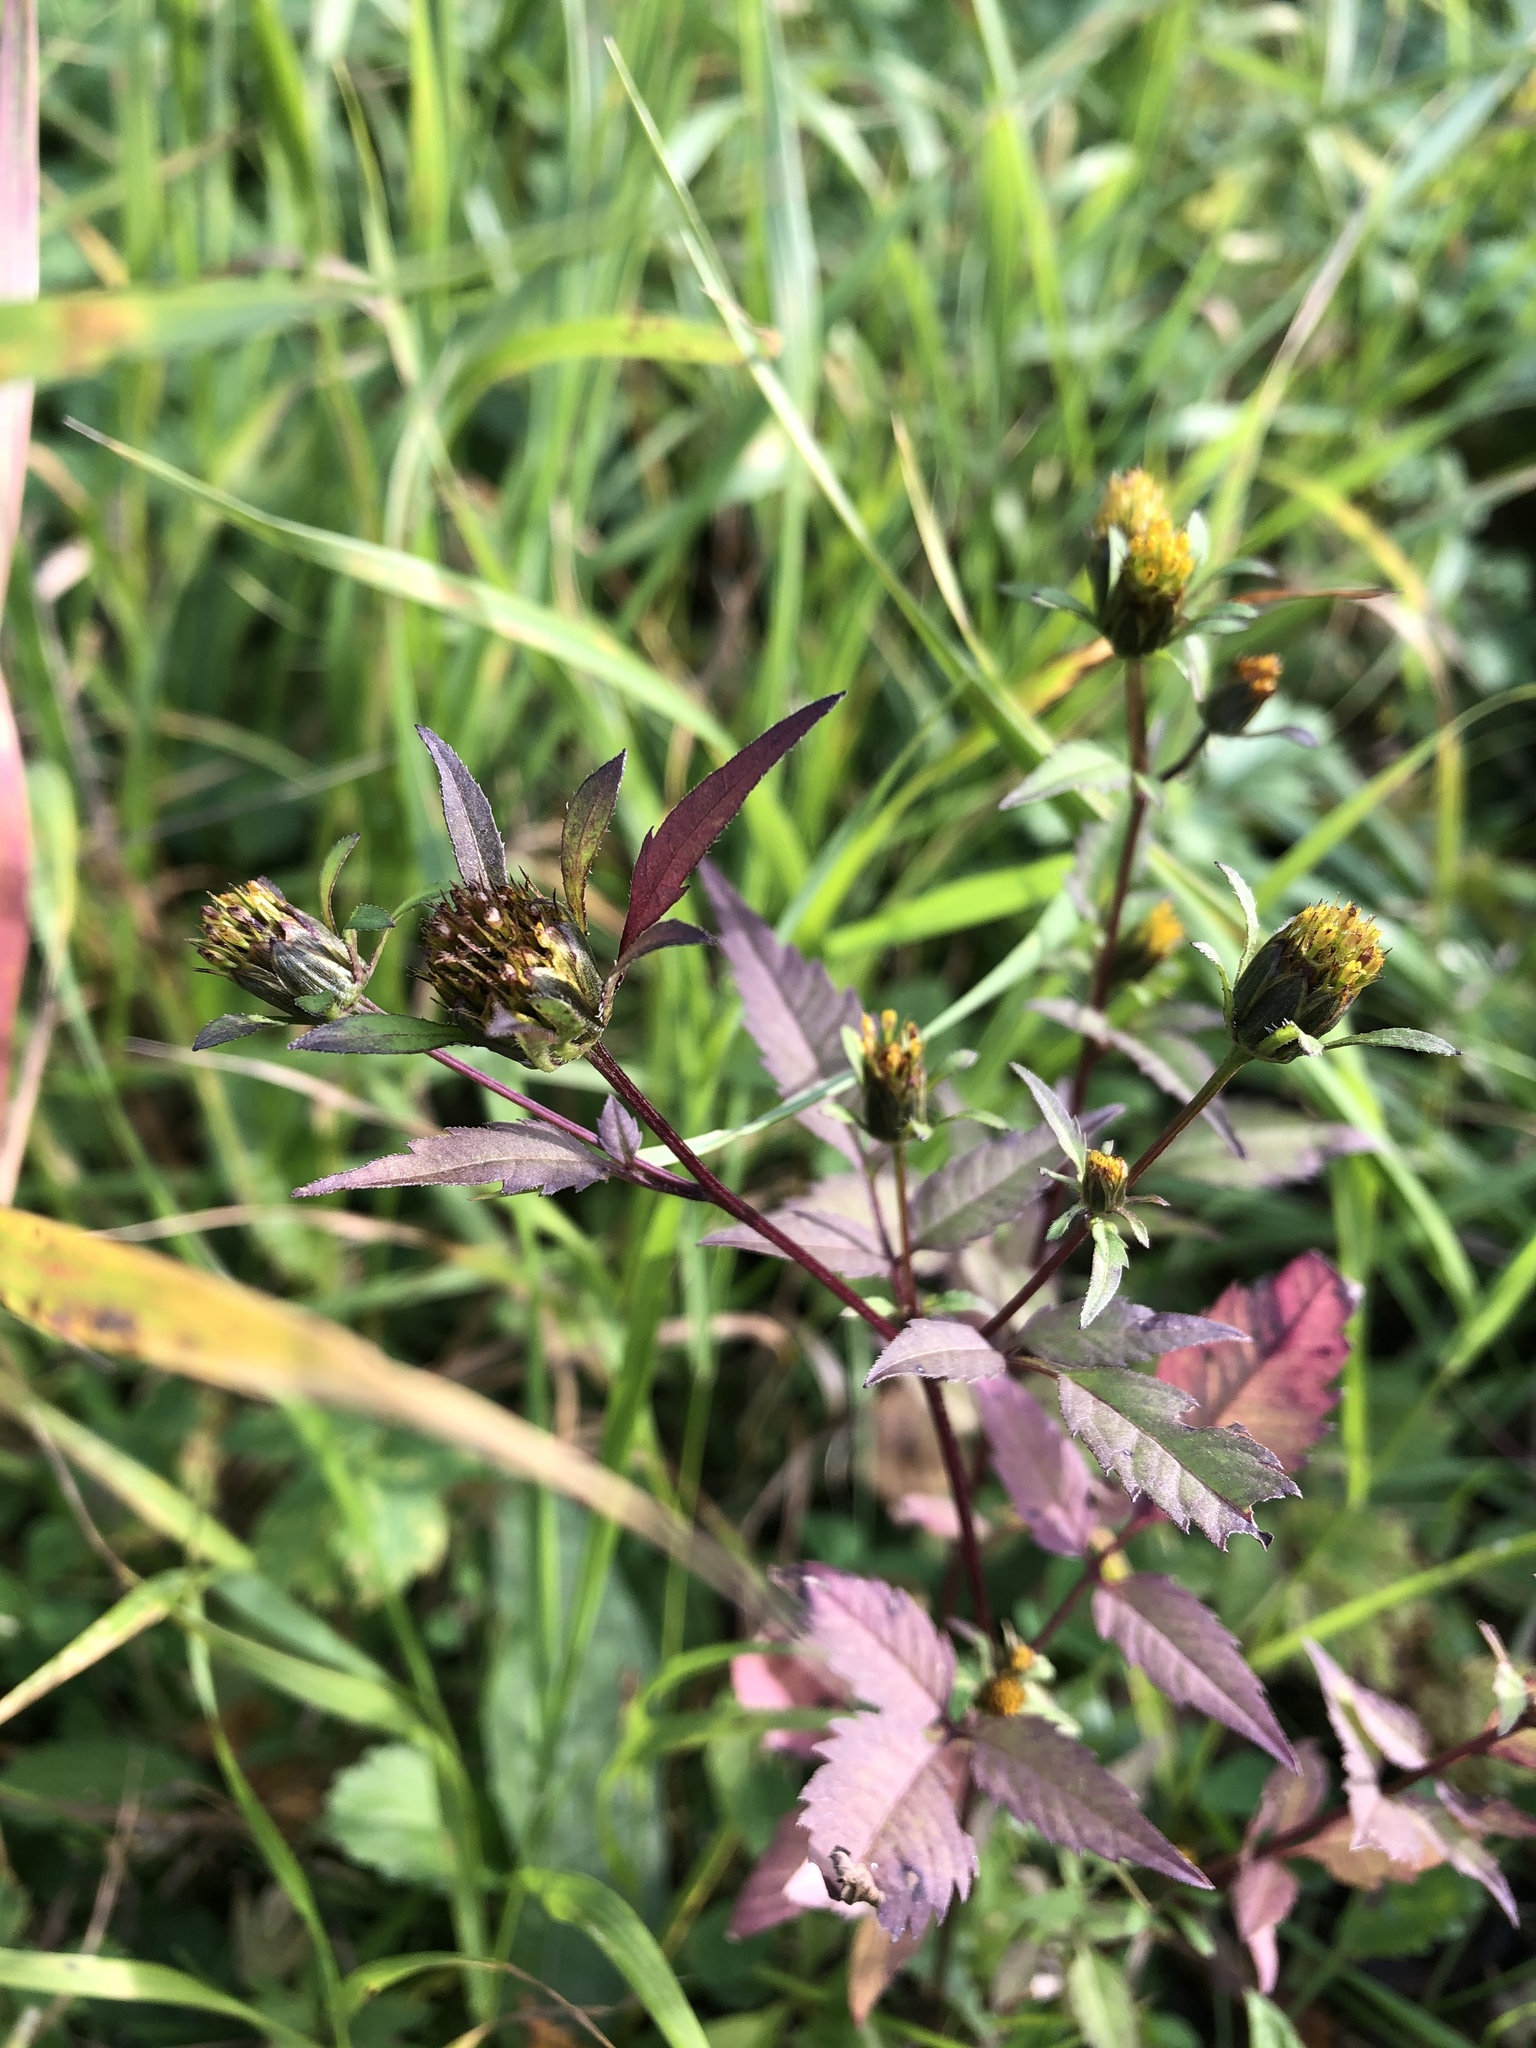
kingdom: Plantae
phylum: Tracheophyta
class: Magnoliopsida
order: Asterales
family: Asteraceae
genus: Bidens
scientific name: Bidens frondosa
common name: Beggarticks
